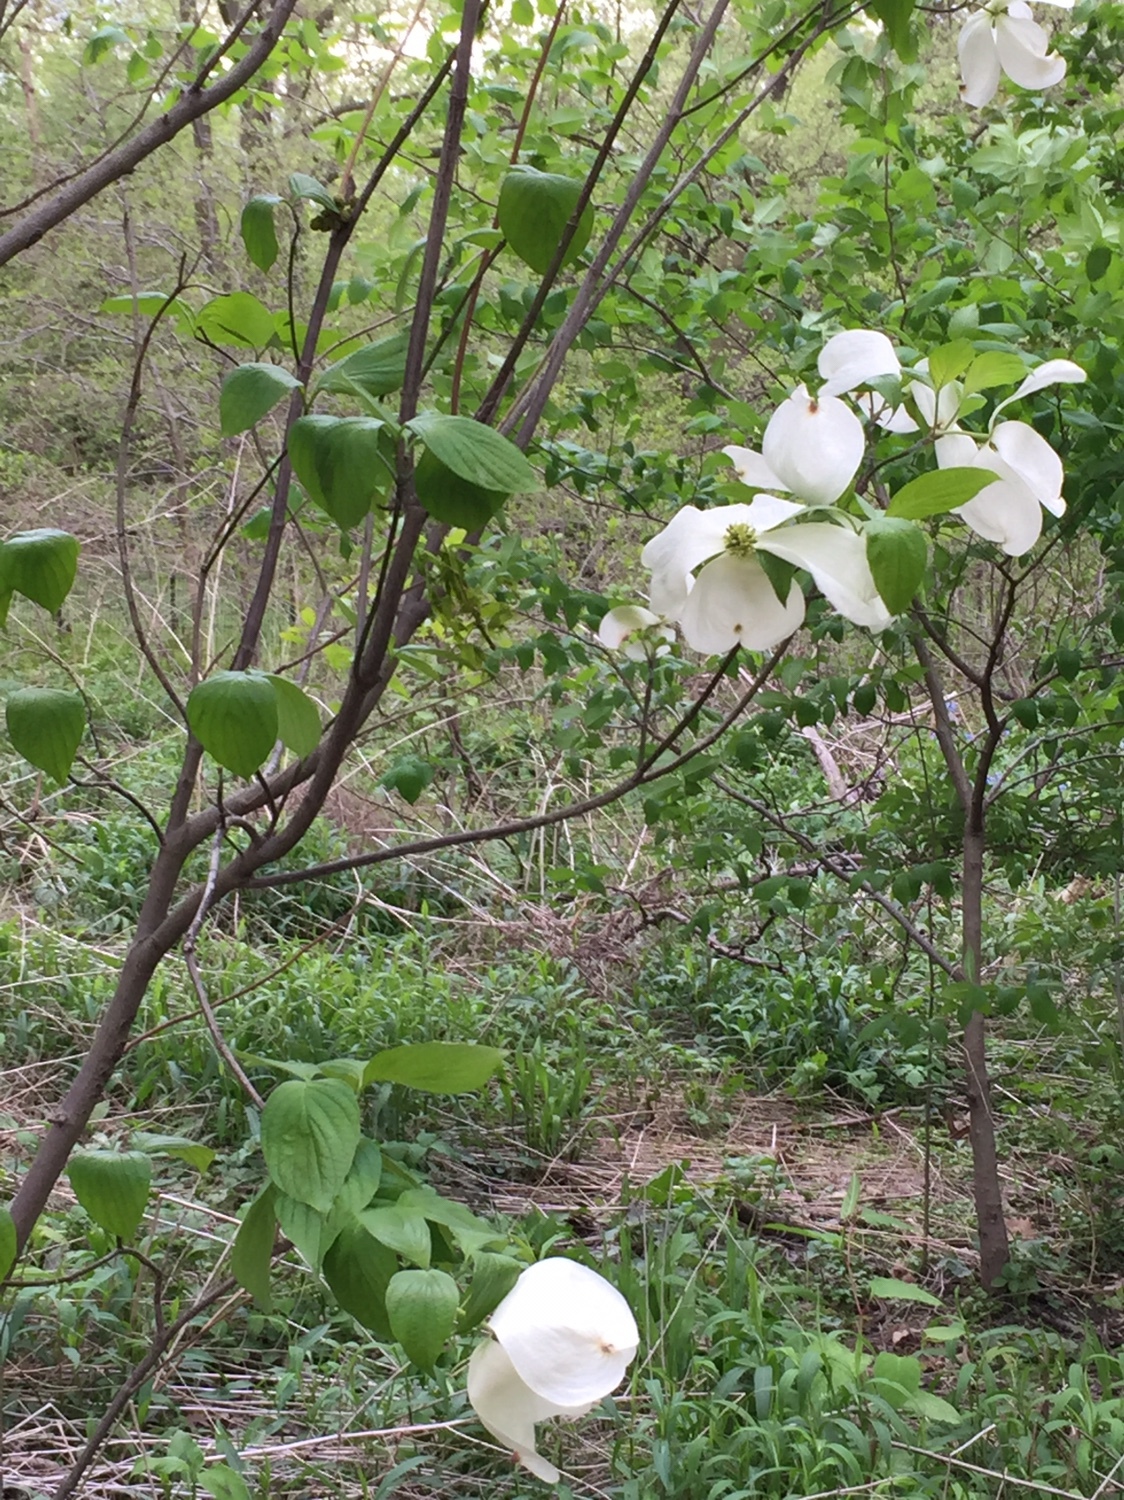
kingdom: Plantae
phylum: Tracheophyta
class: Magnoliopsida
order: Cornales
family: Cornaceae
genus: Cornus
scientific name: Cornus florida
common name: Flowering dogwood
